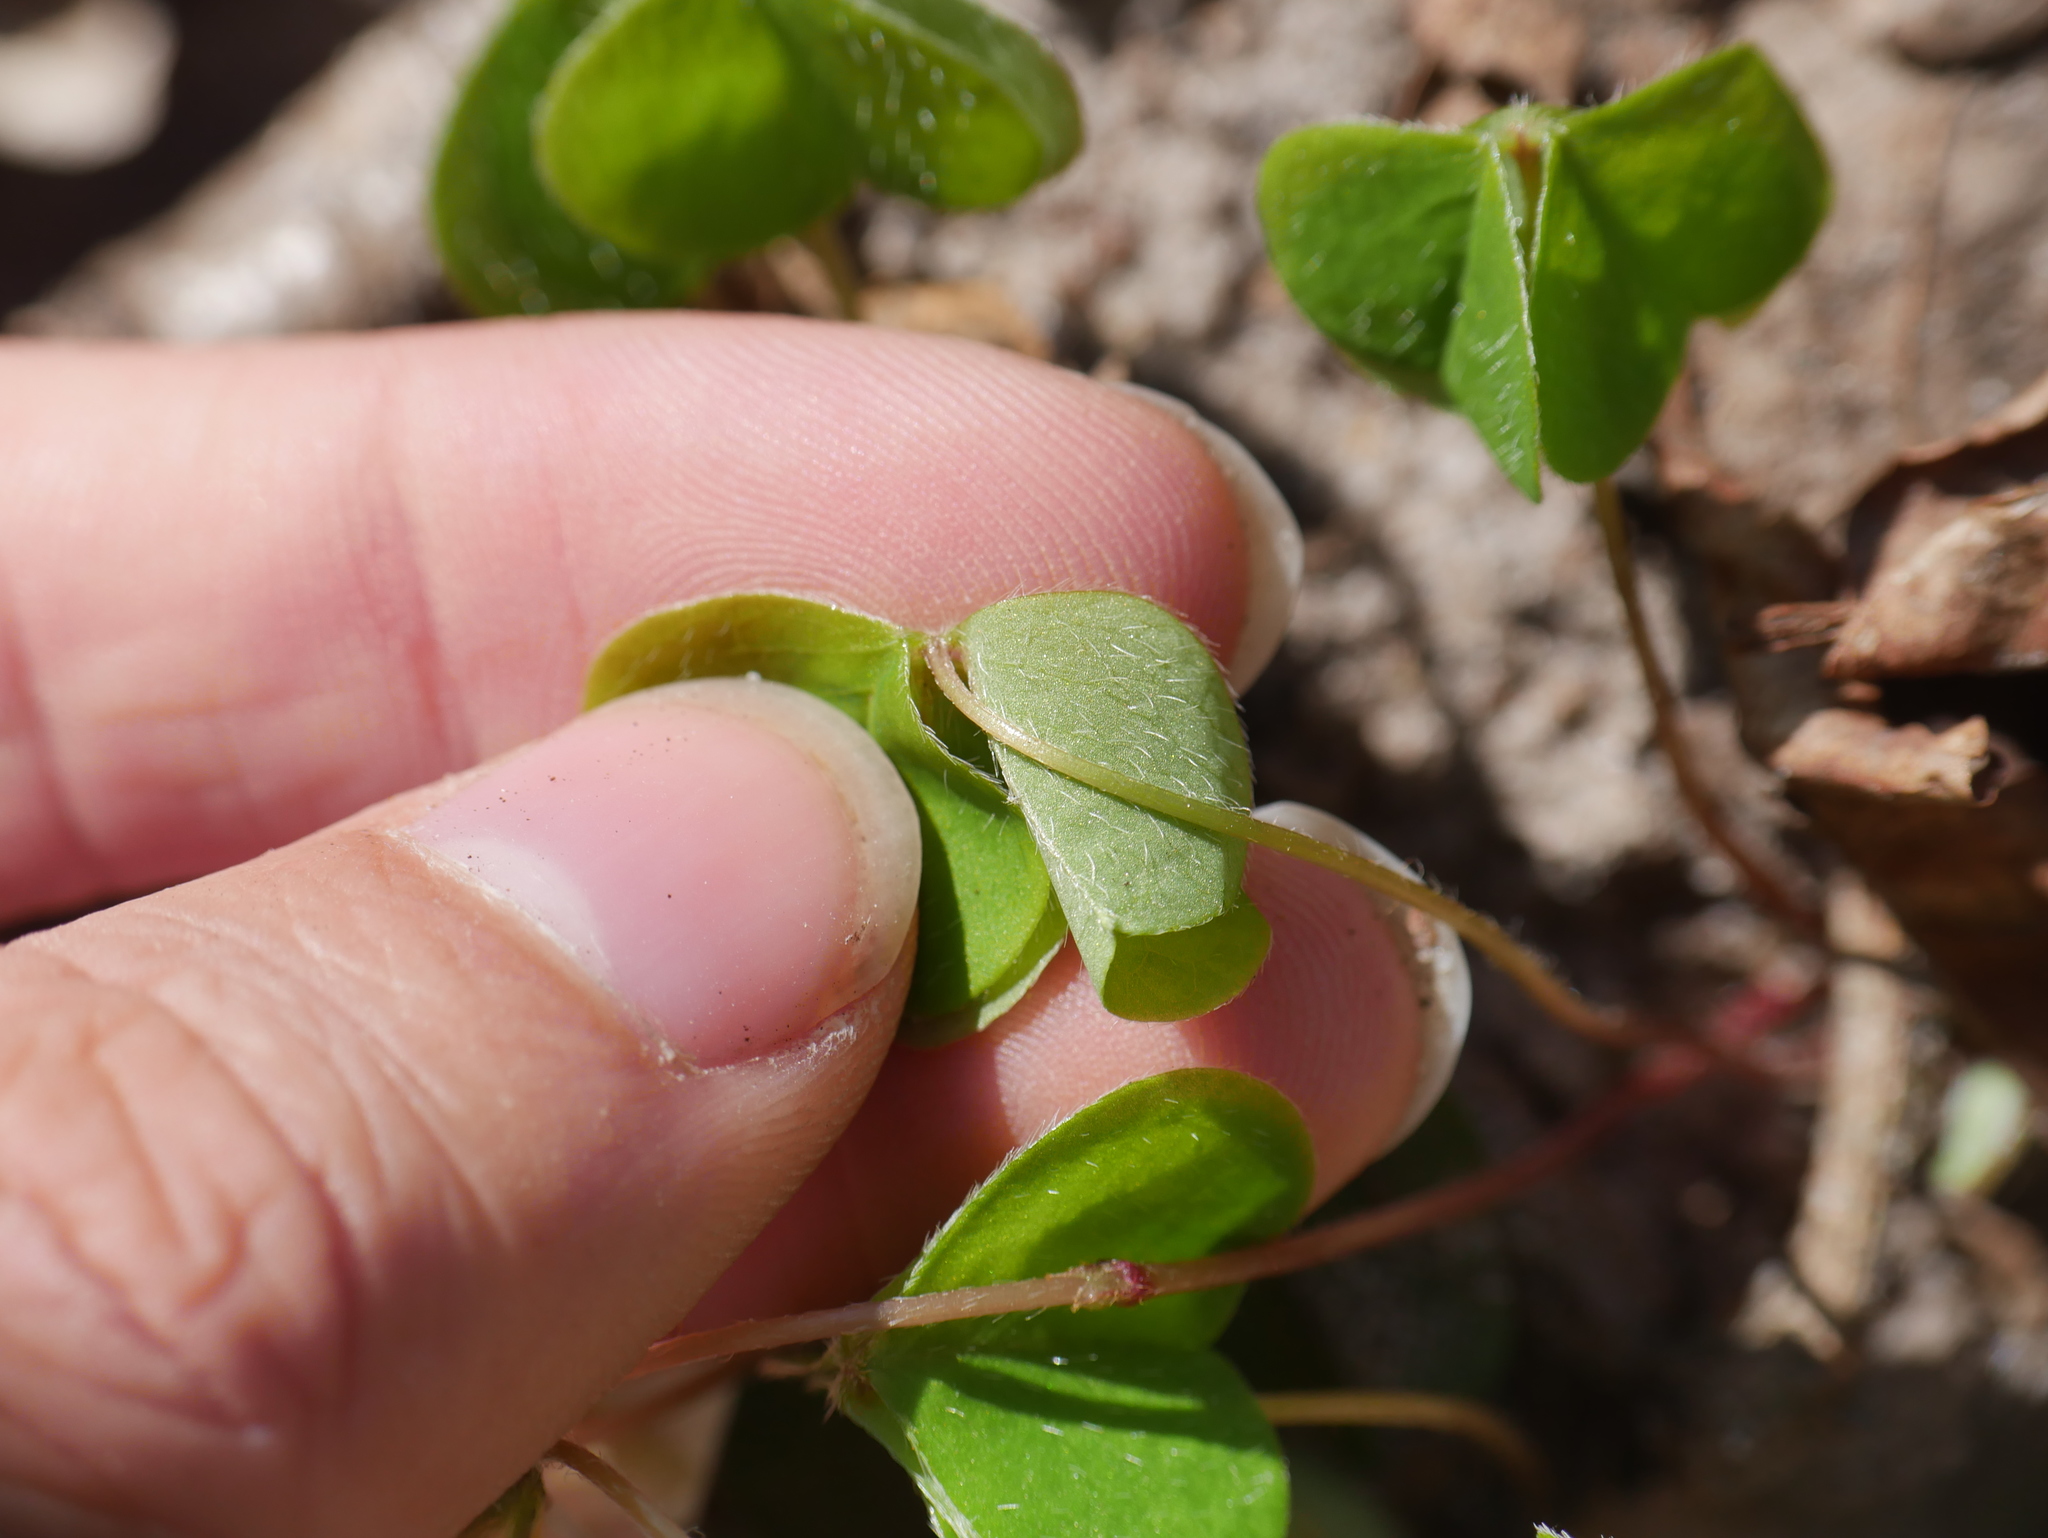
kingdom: Plantae
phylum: Tracheophyta
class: Magnoliopsida
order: Oxalidales
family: Oxalidaceae
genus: Oxalis
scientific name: Oxalis acetosella
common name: Wood-sorrel
